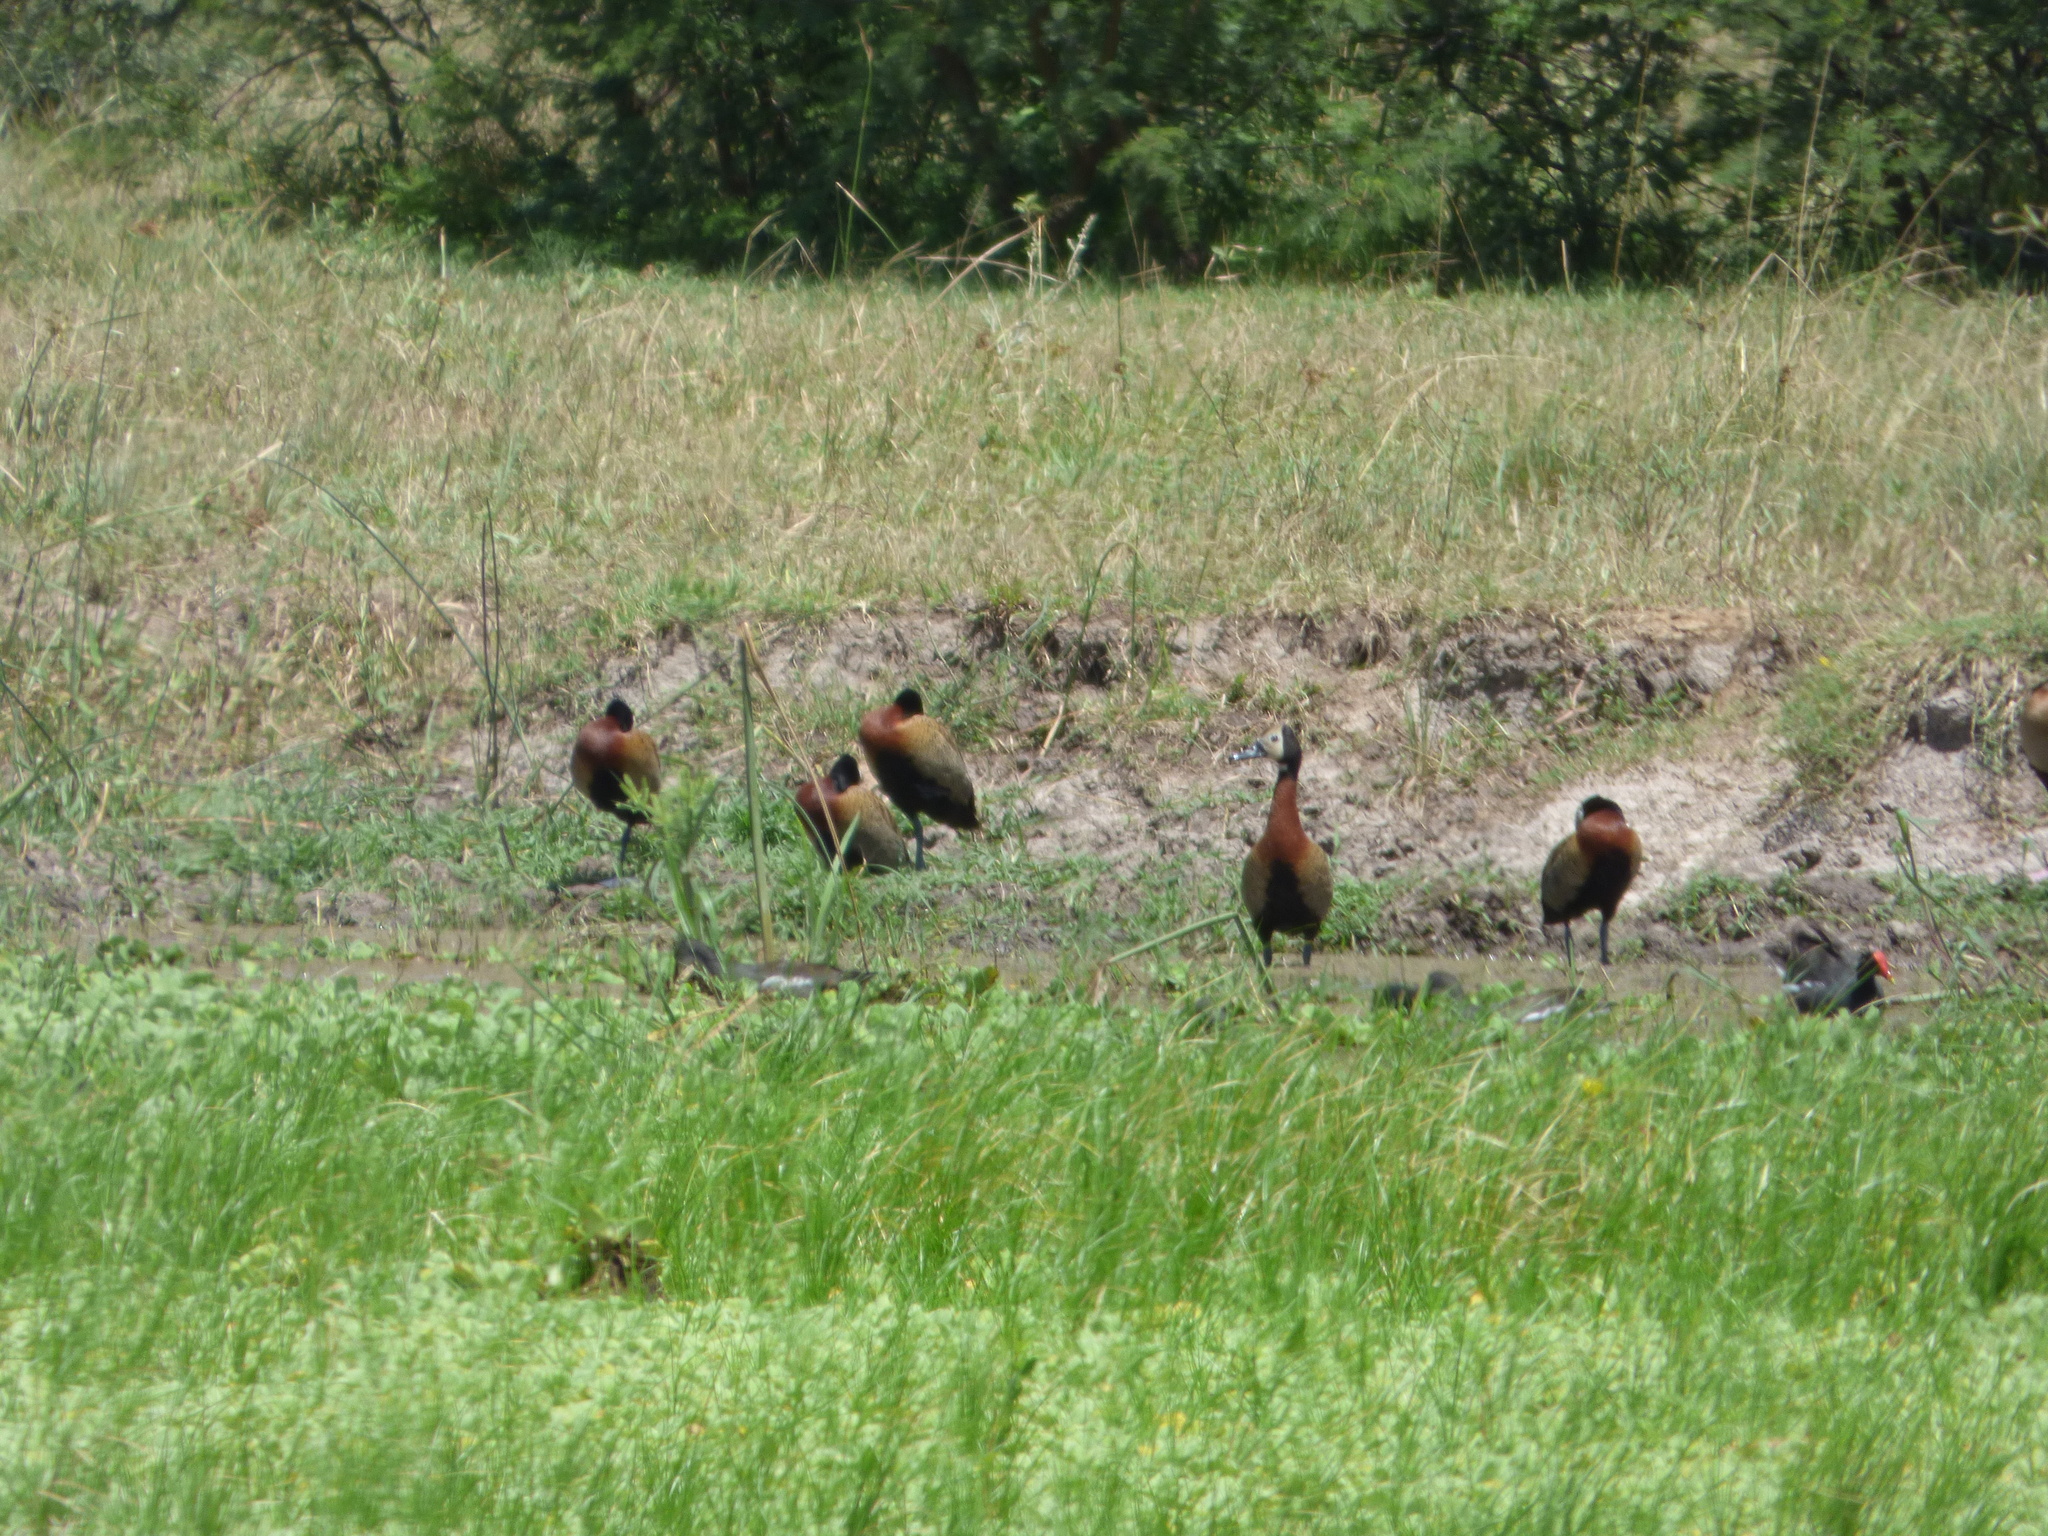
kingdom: Animalia
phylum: Chordata
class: Aves
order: Anseriformes
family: Anatidae
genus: Dendrocygna
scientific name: Dendrocygna viduata
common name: White-faced whistling duck
